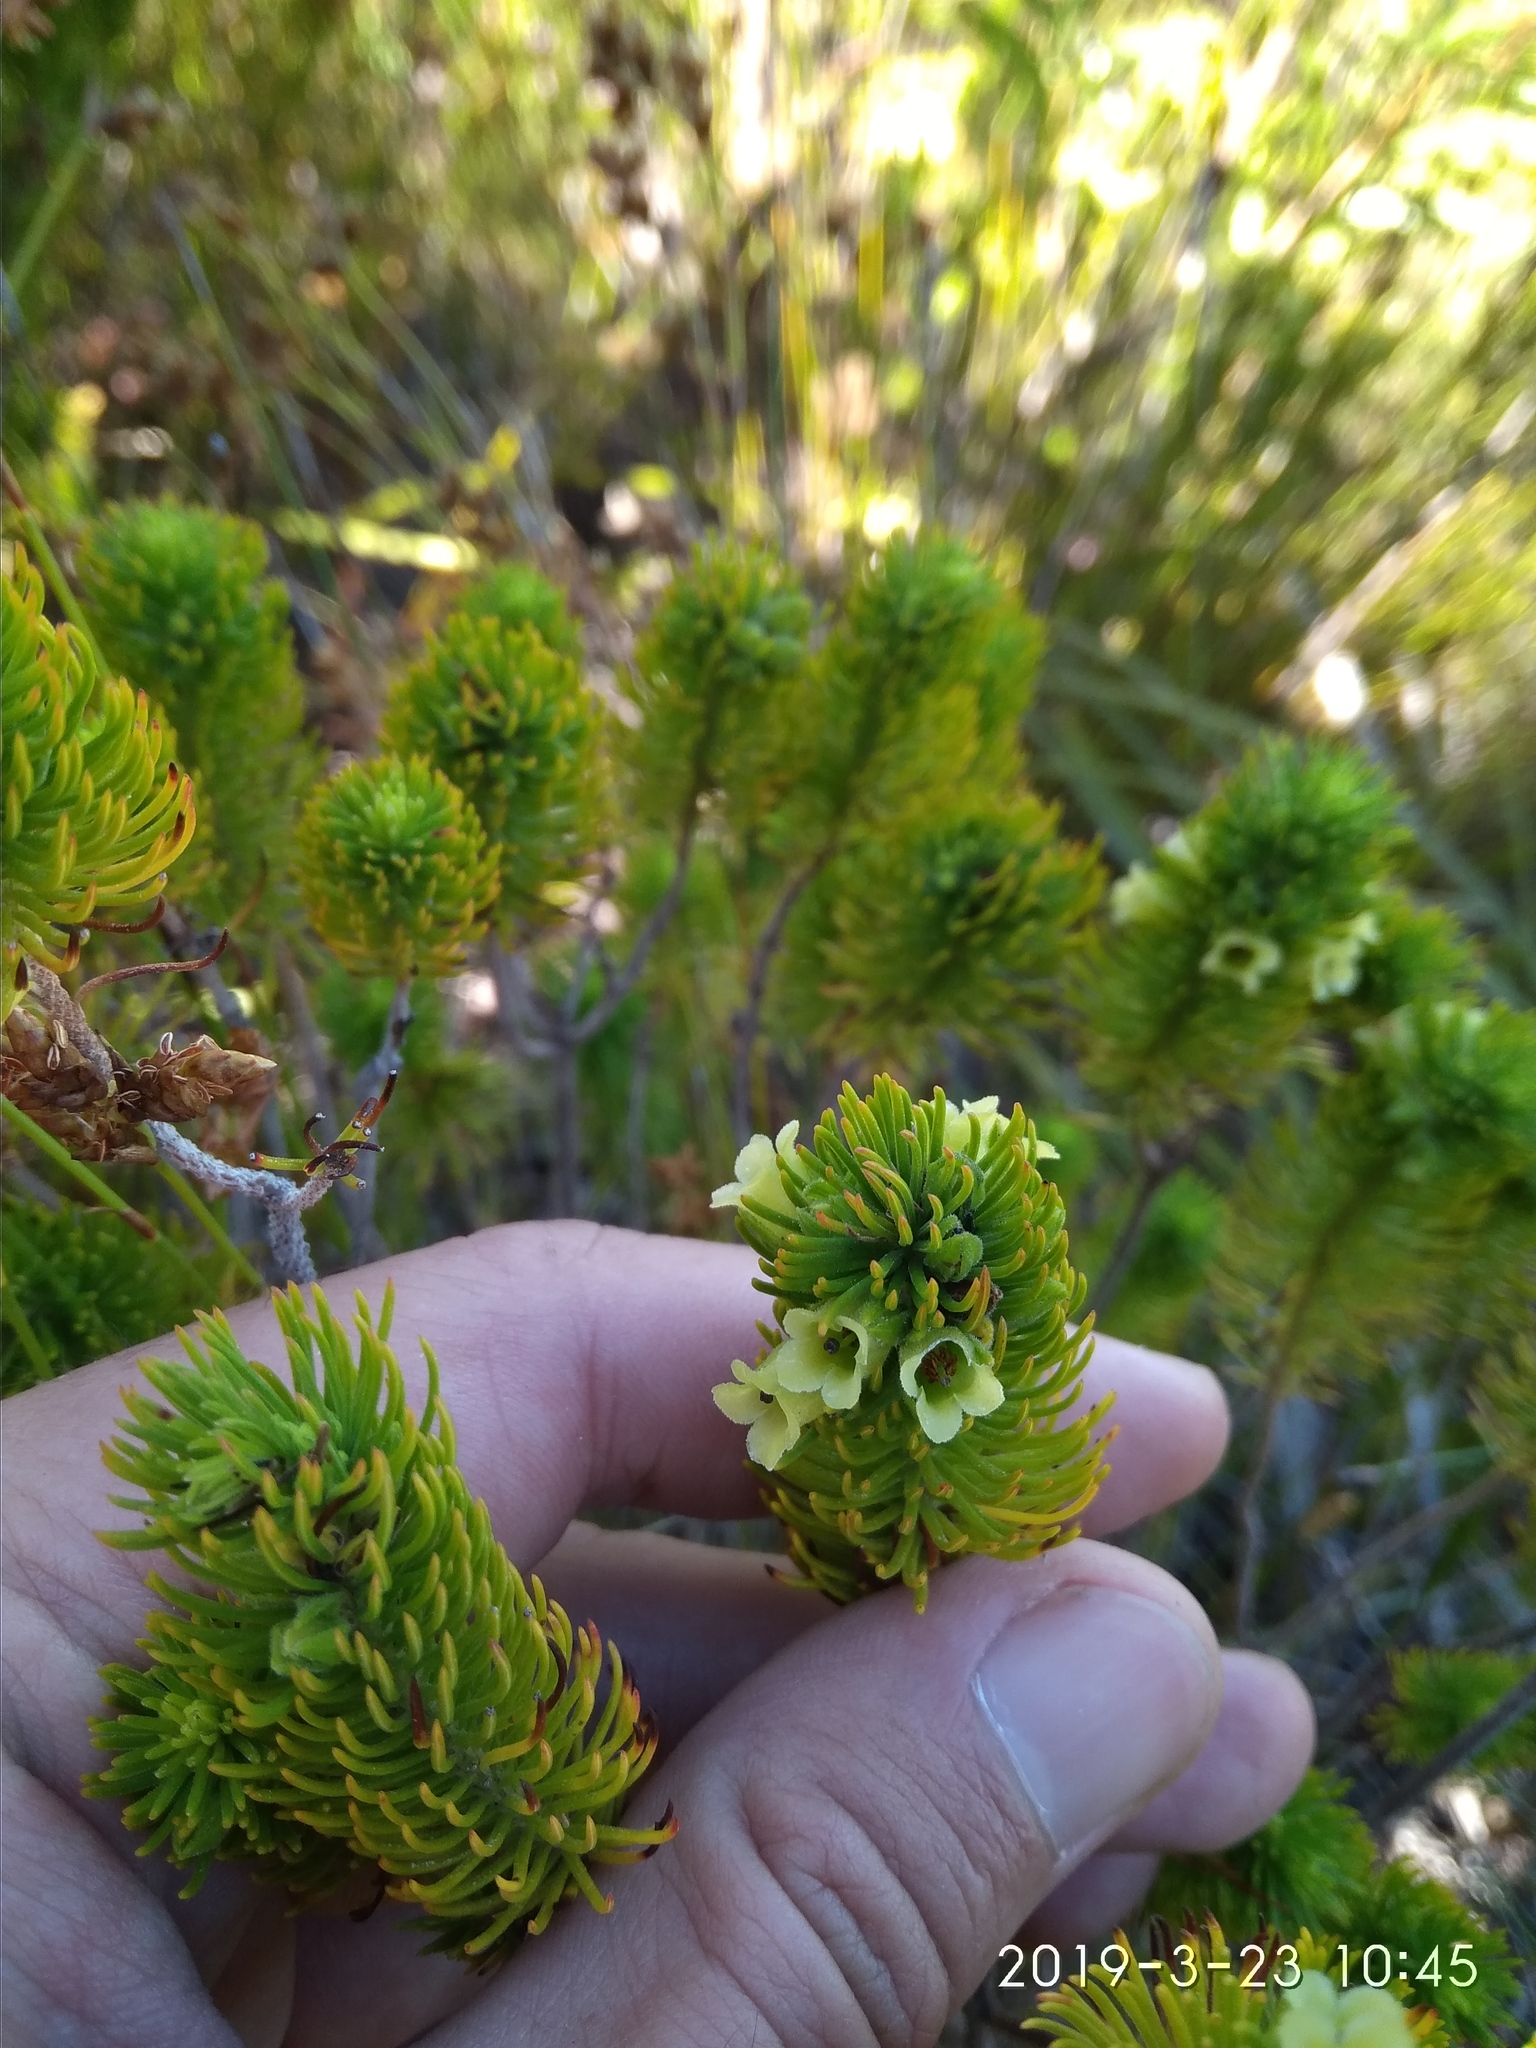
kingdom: Plantae
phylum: Tracheophyta
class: Magnoliopsida
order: Ericales
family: Ericaceae
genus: Erica
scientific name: Erica viscaria
